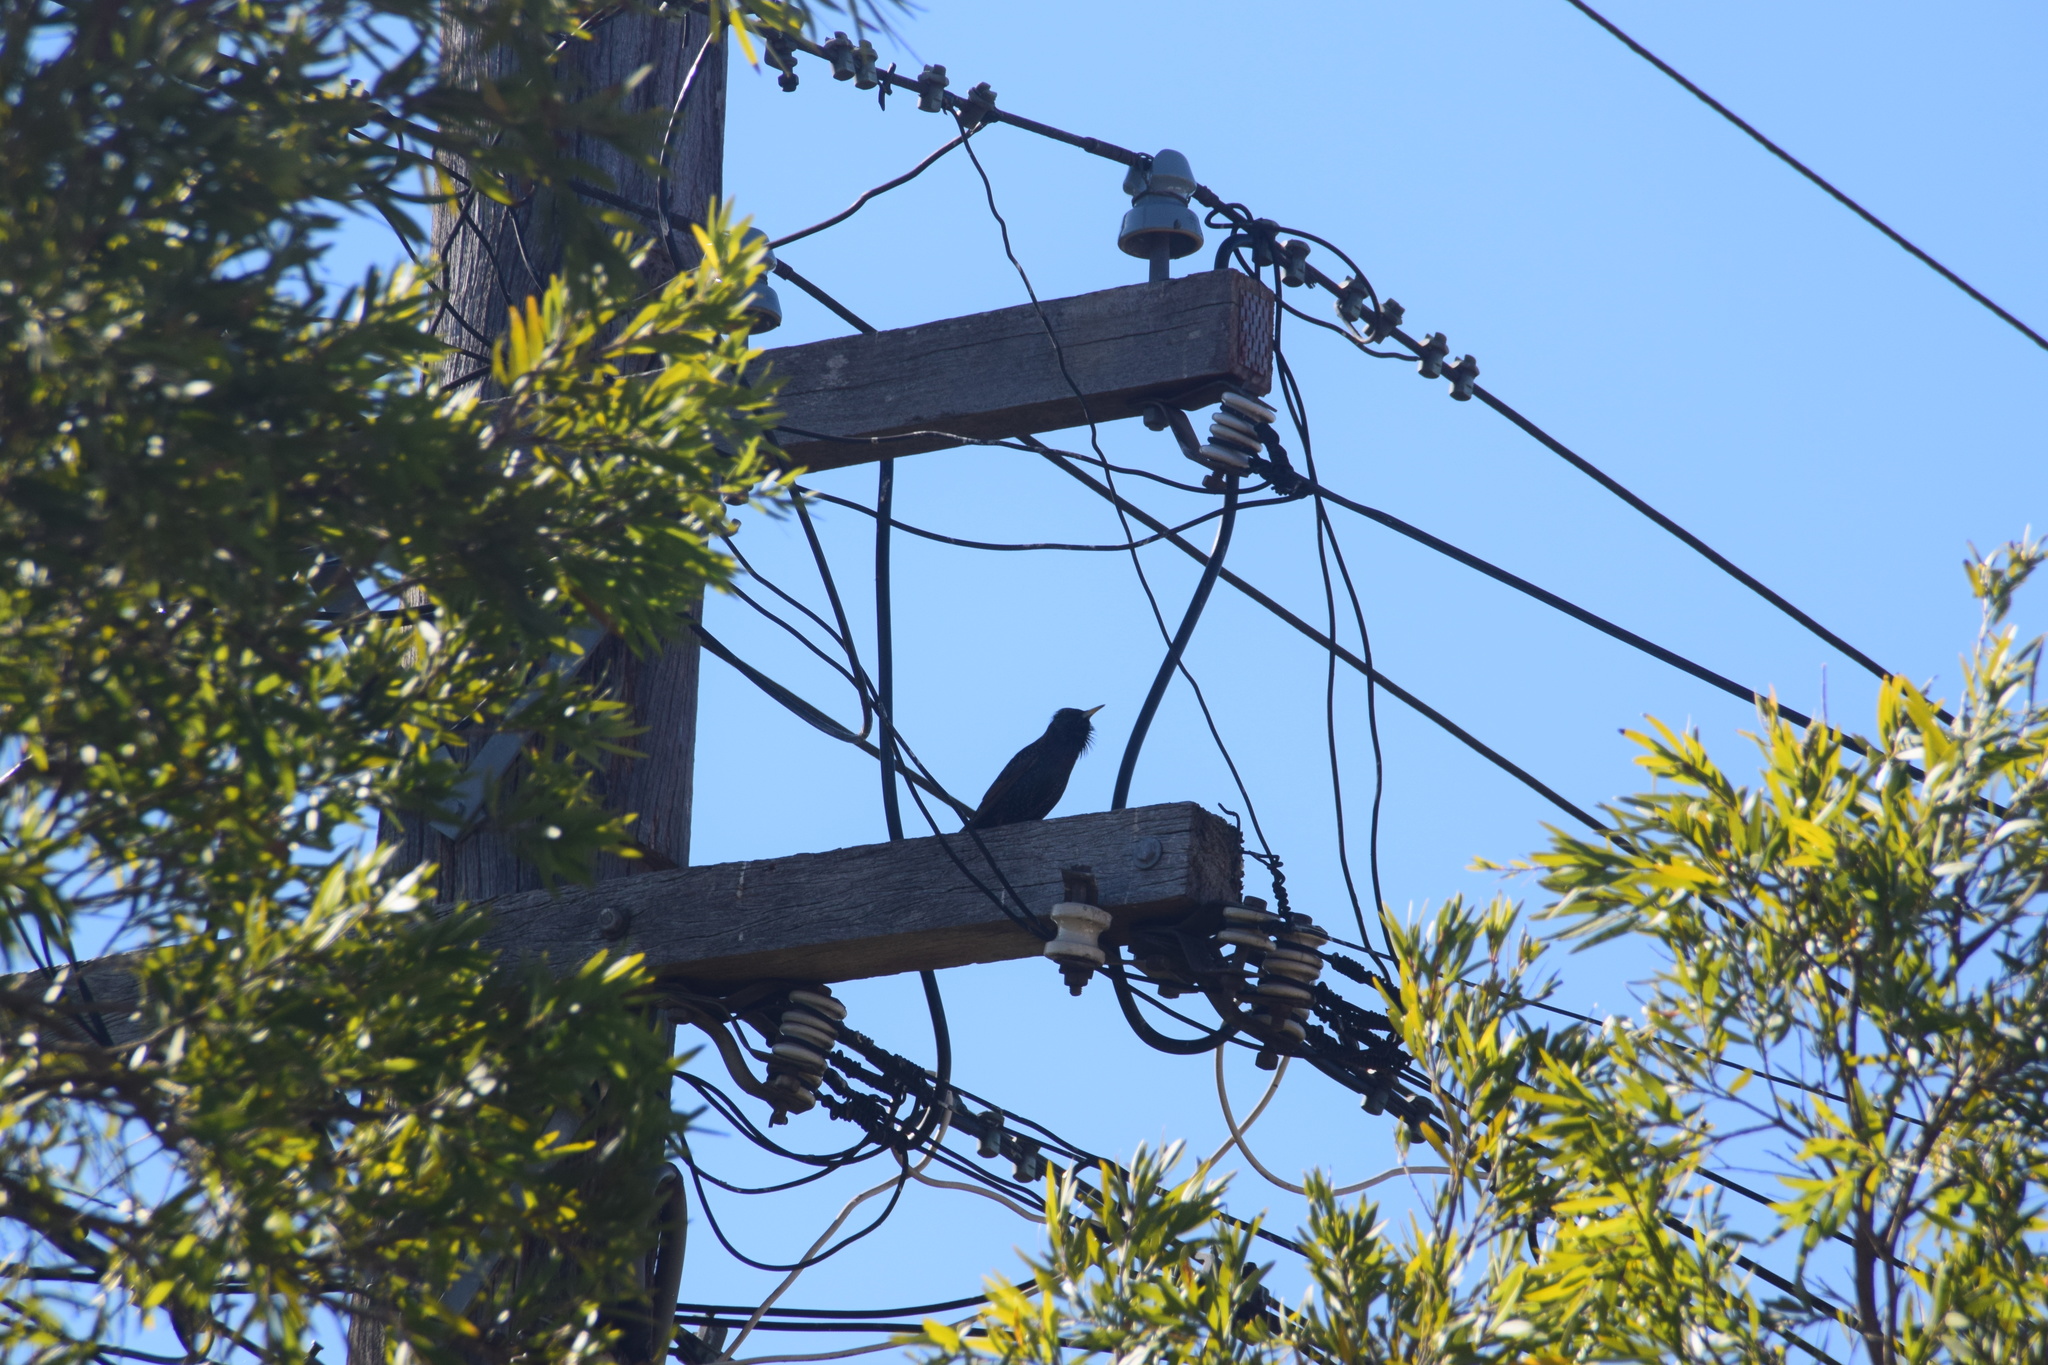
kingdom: Animalia
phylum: Chordata
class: Aves
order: Passeriformes
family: Sturnidae
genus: Sturnus
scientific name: Sturnus vulgaris
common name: Common starling
